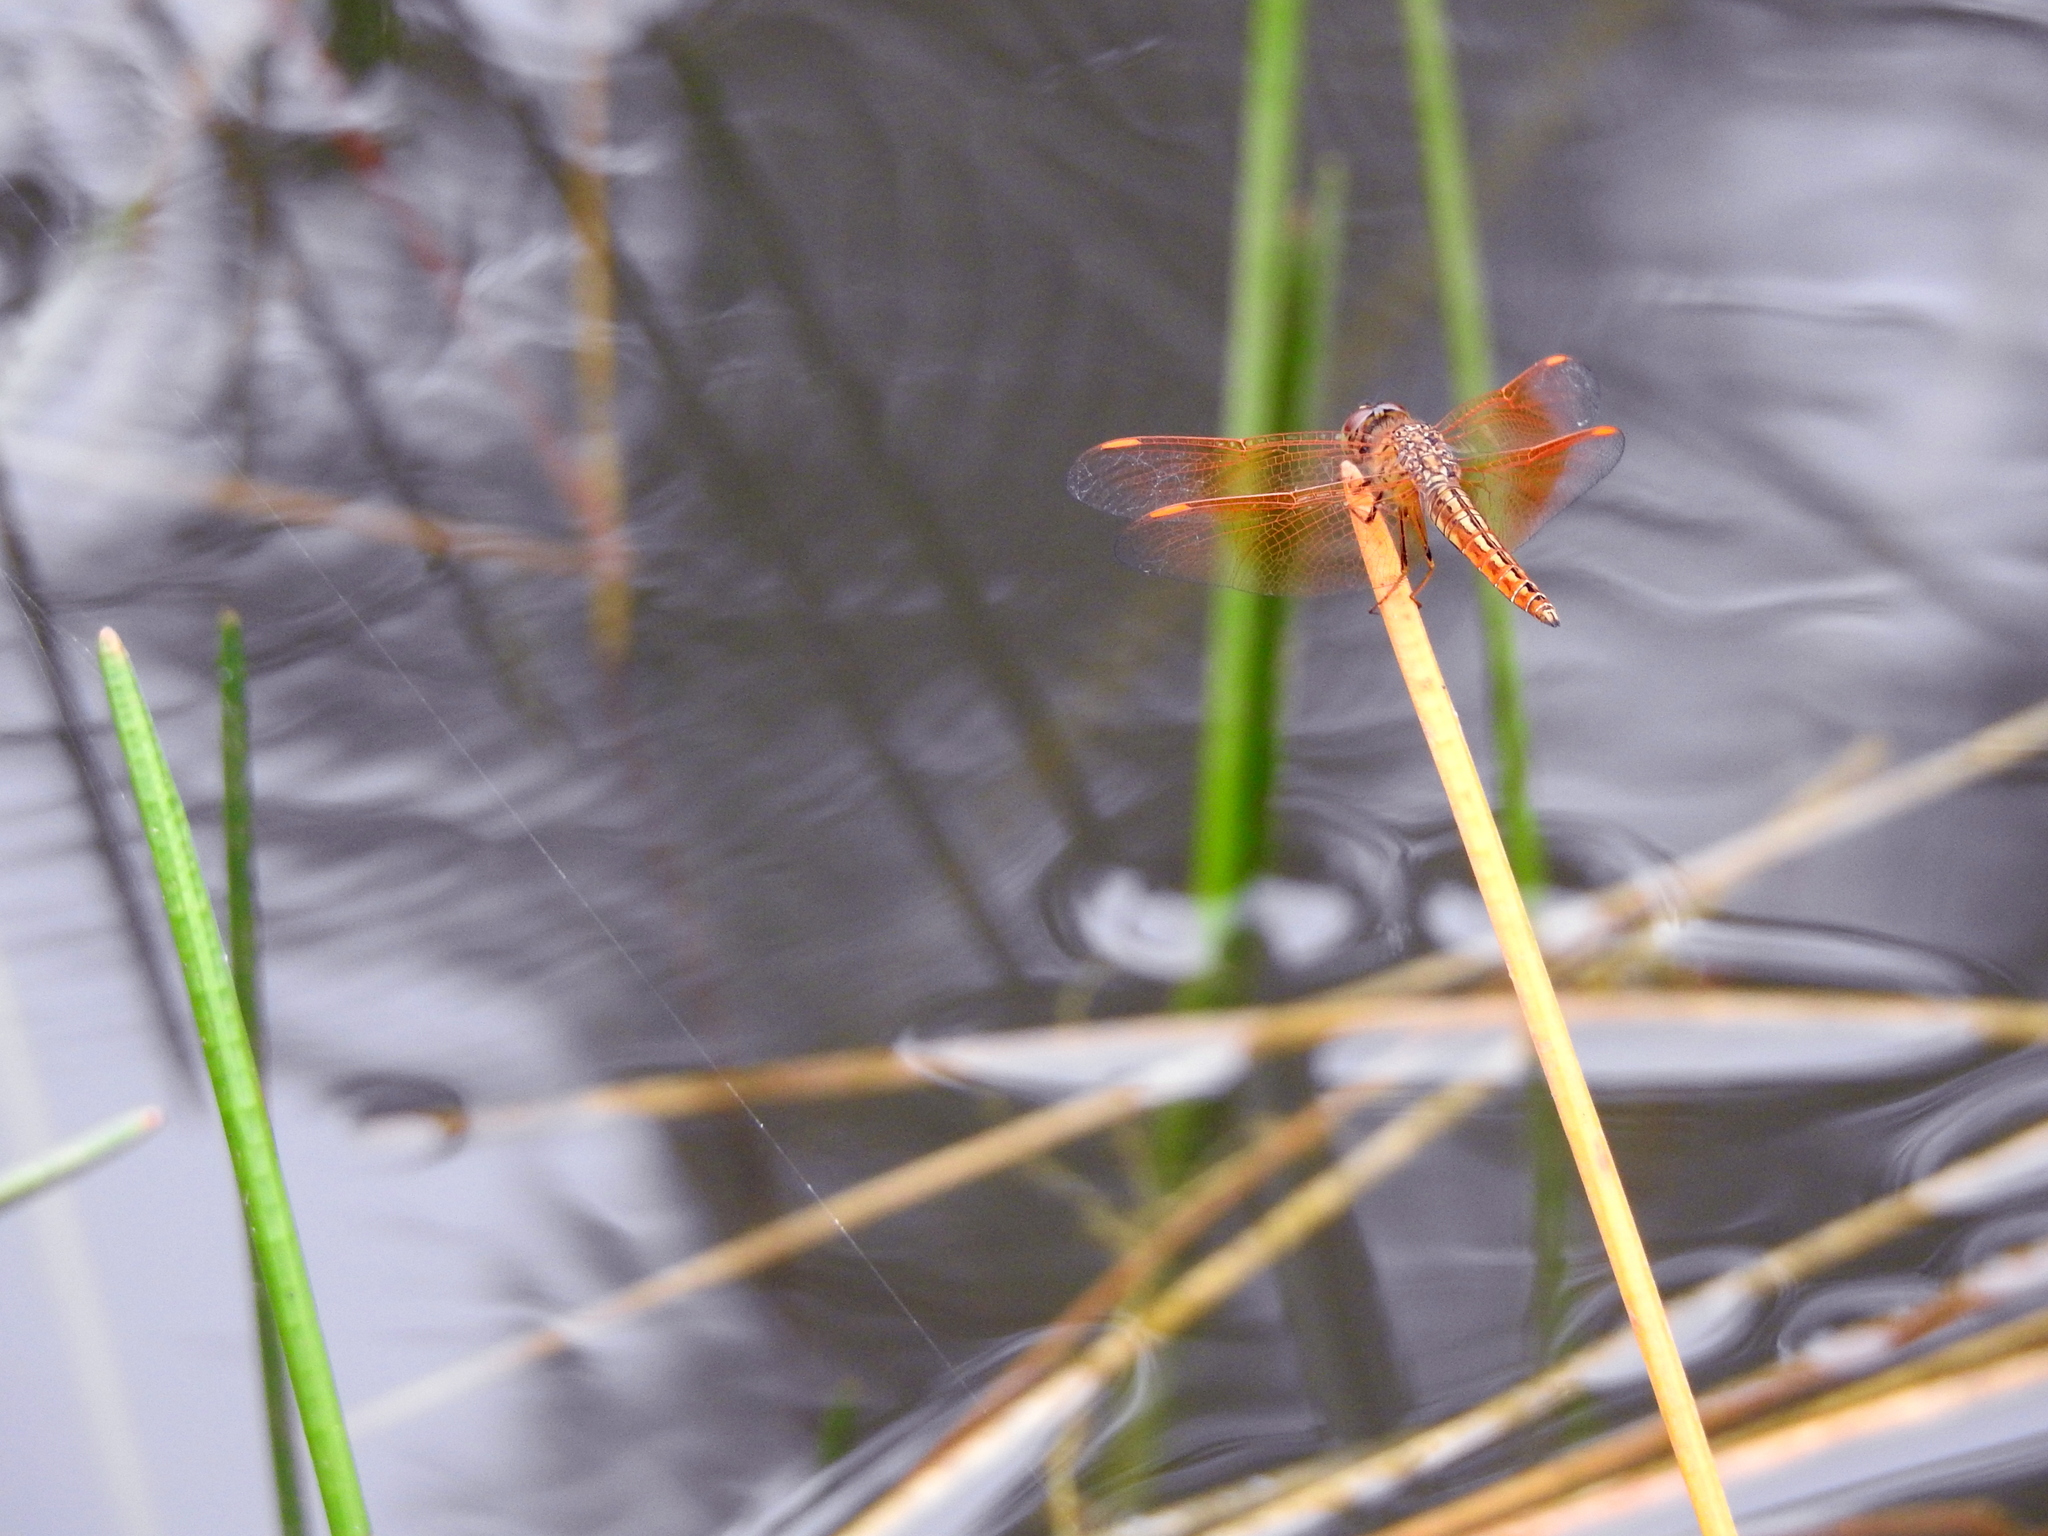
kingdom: Animalia
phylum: Arthropoda
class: Insecta
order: Odonata
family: Libellulidae
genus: Brachythemis
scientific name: Brachythemis contaminata
